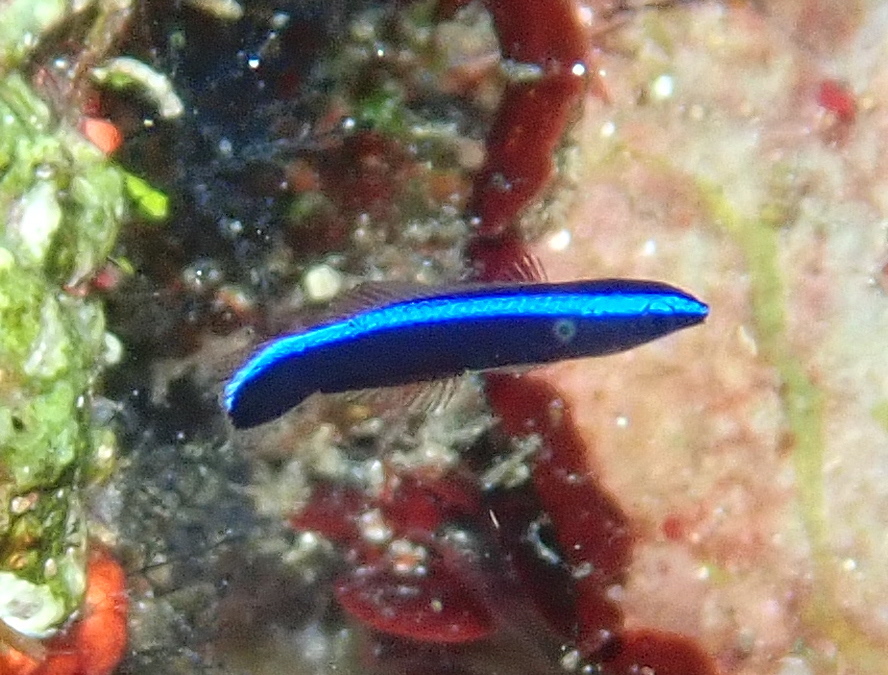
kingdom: Animalia
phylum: Chordata
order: Perciformes
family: Labridae
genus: Labroides
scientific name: Labroides dimidiatus
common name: Blue diesel wrasse
